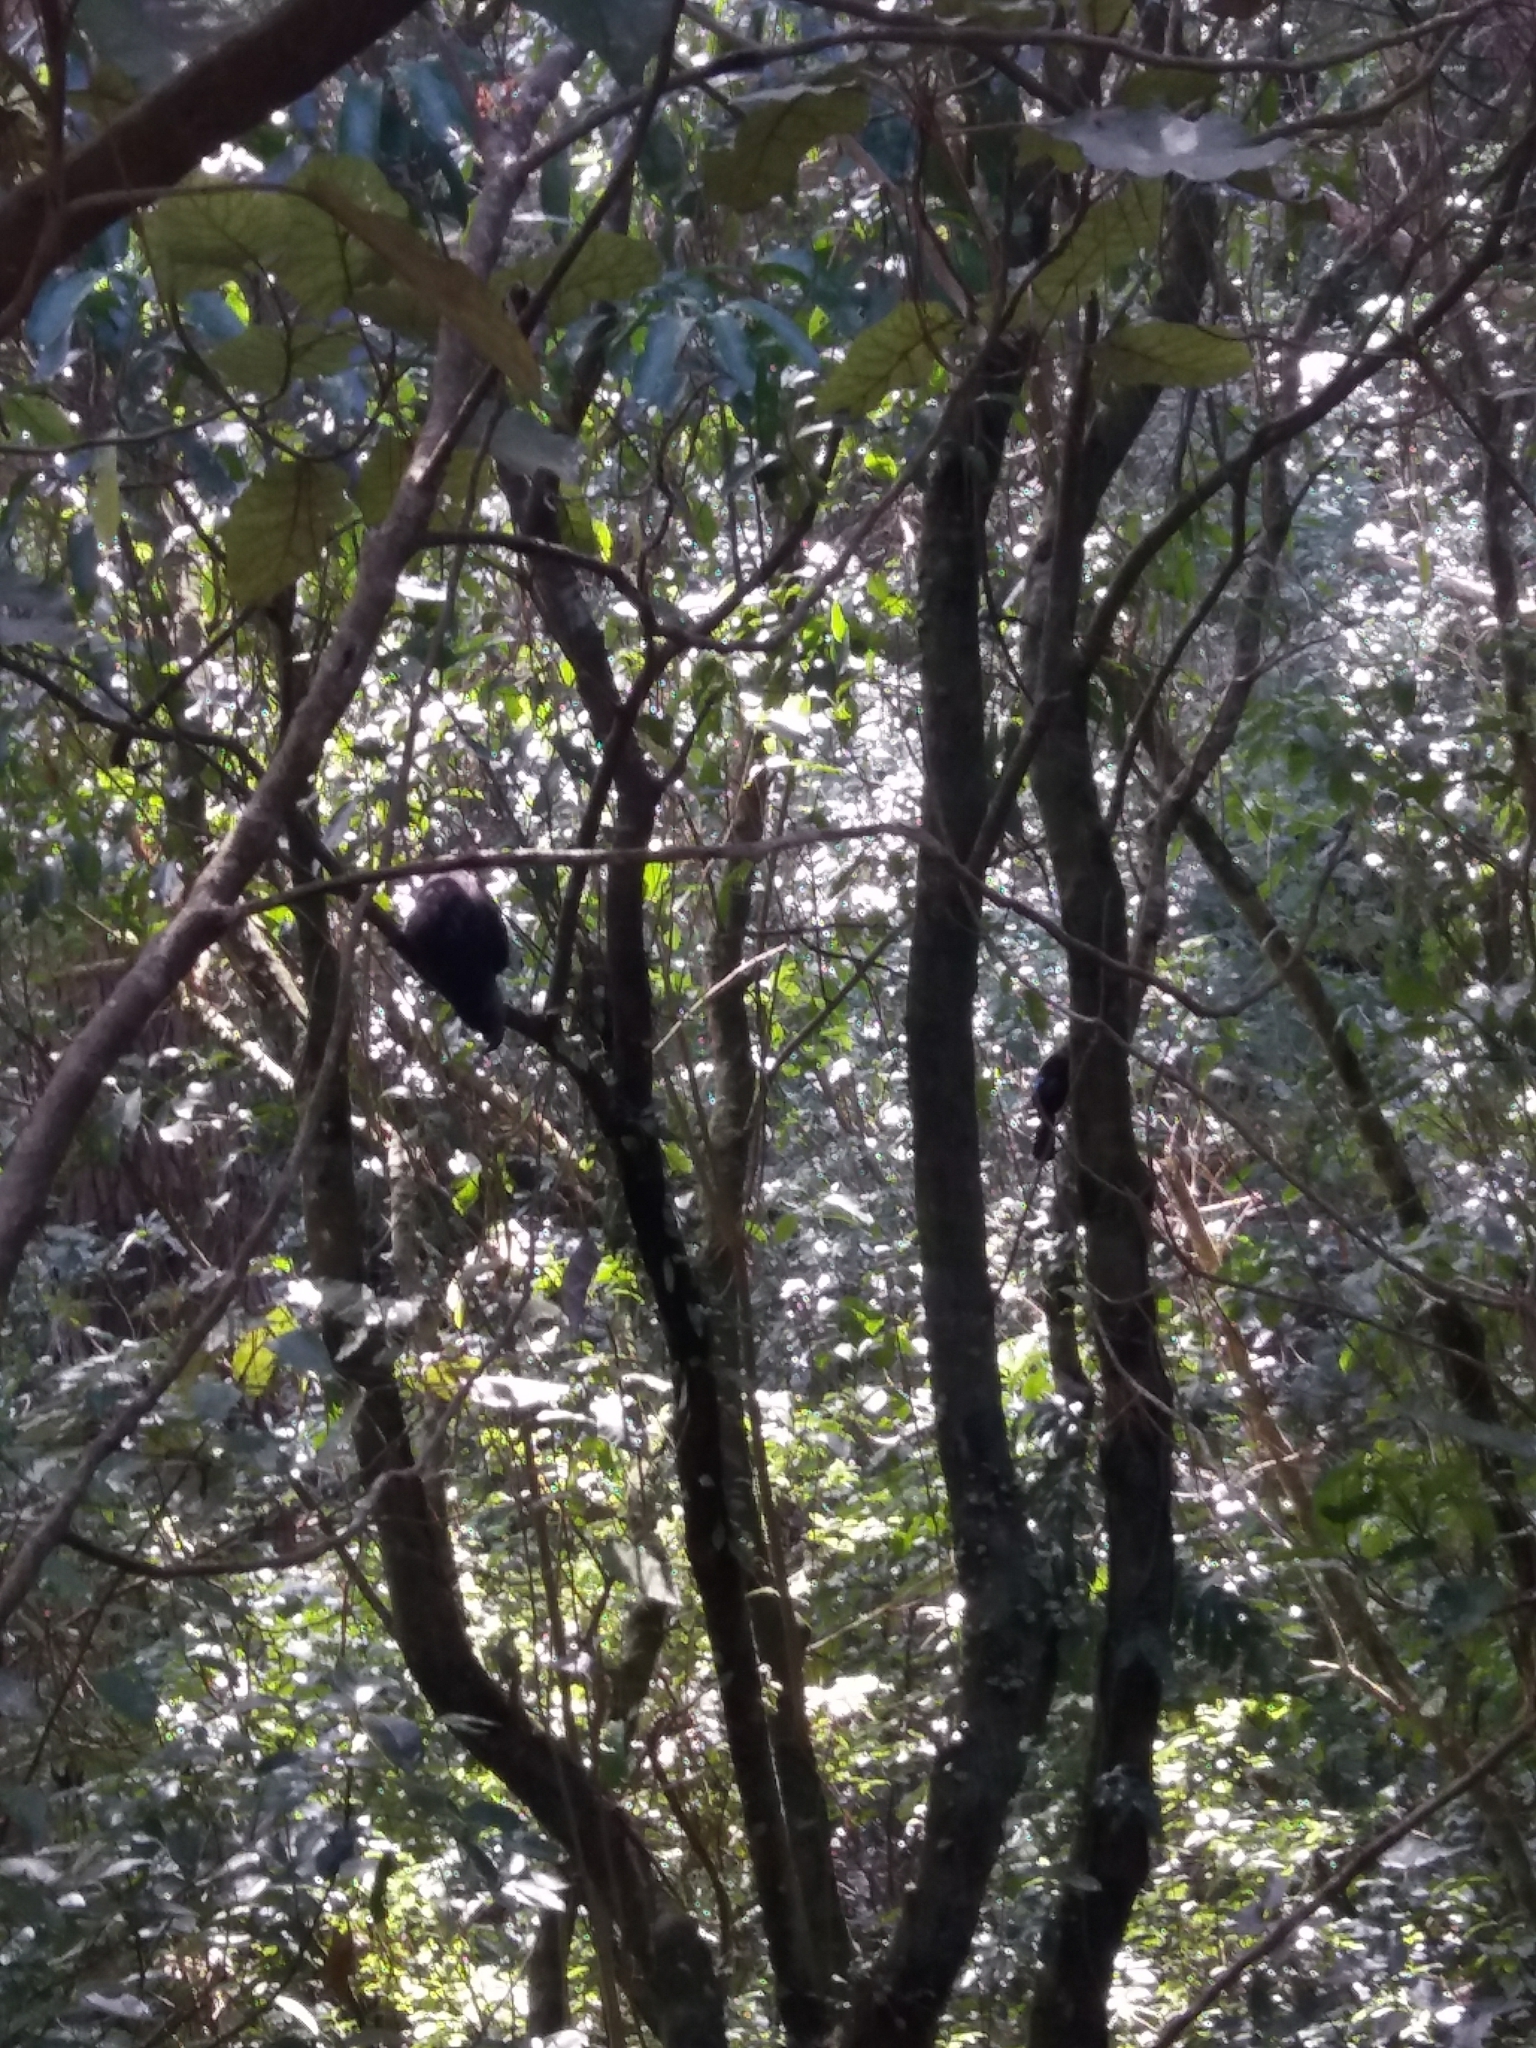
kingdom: Animalia
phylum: Chordata
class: Aves
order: Psittaciformes
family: Psittacidae
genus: Nestor
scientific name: Nestor meridionalis
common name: New zealand kaka
